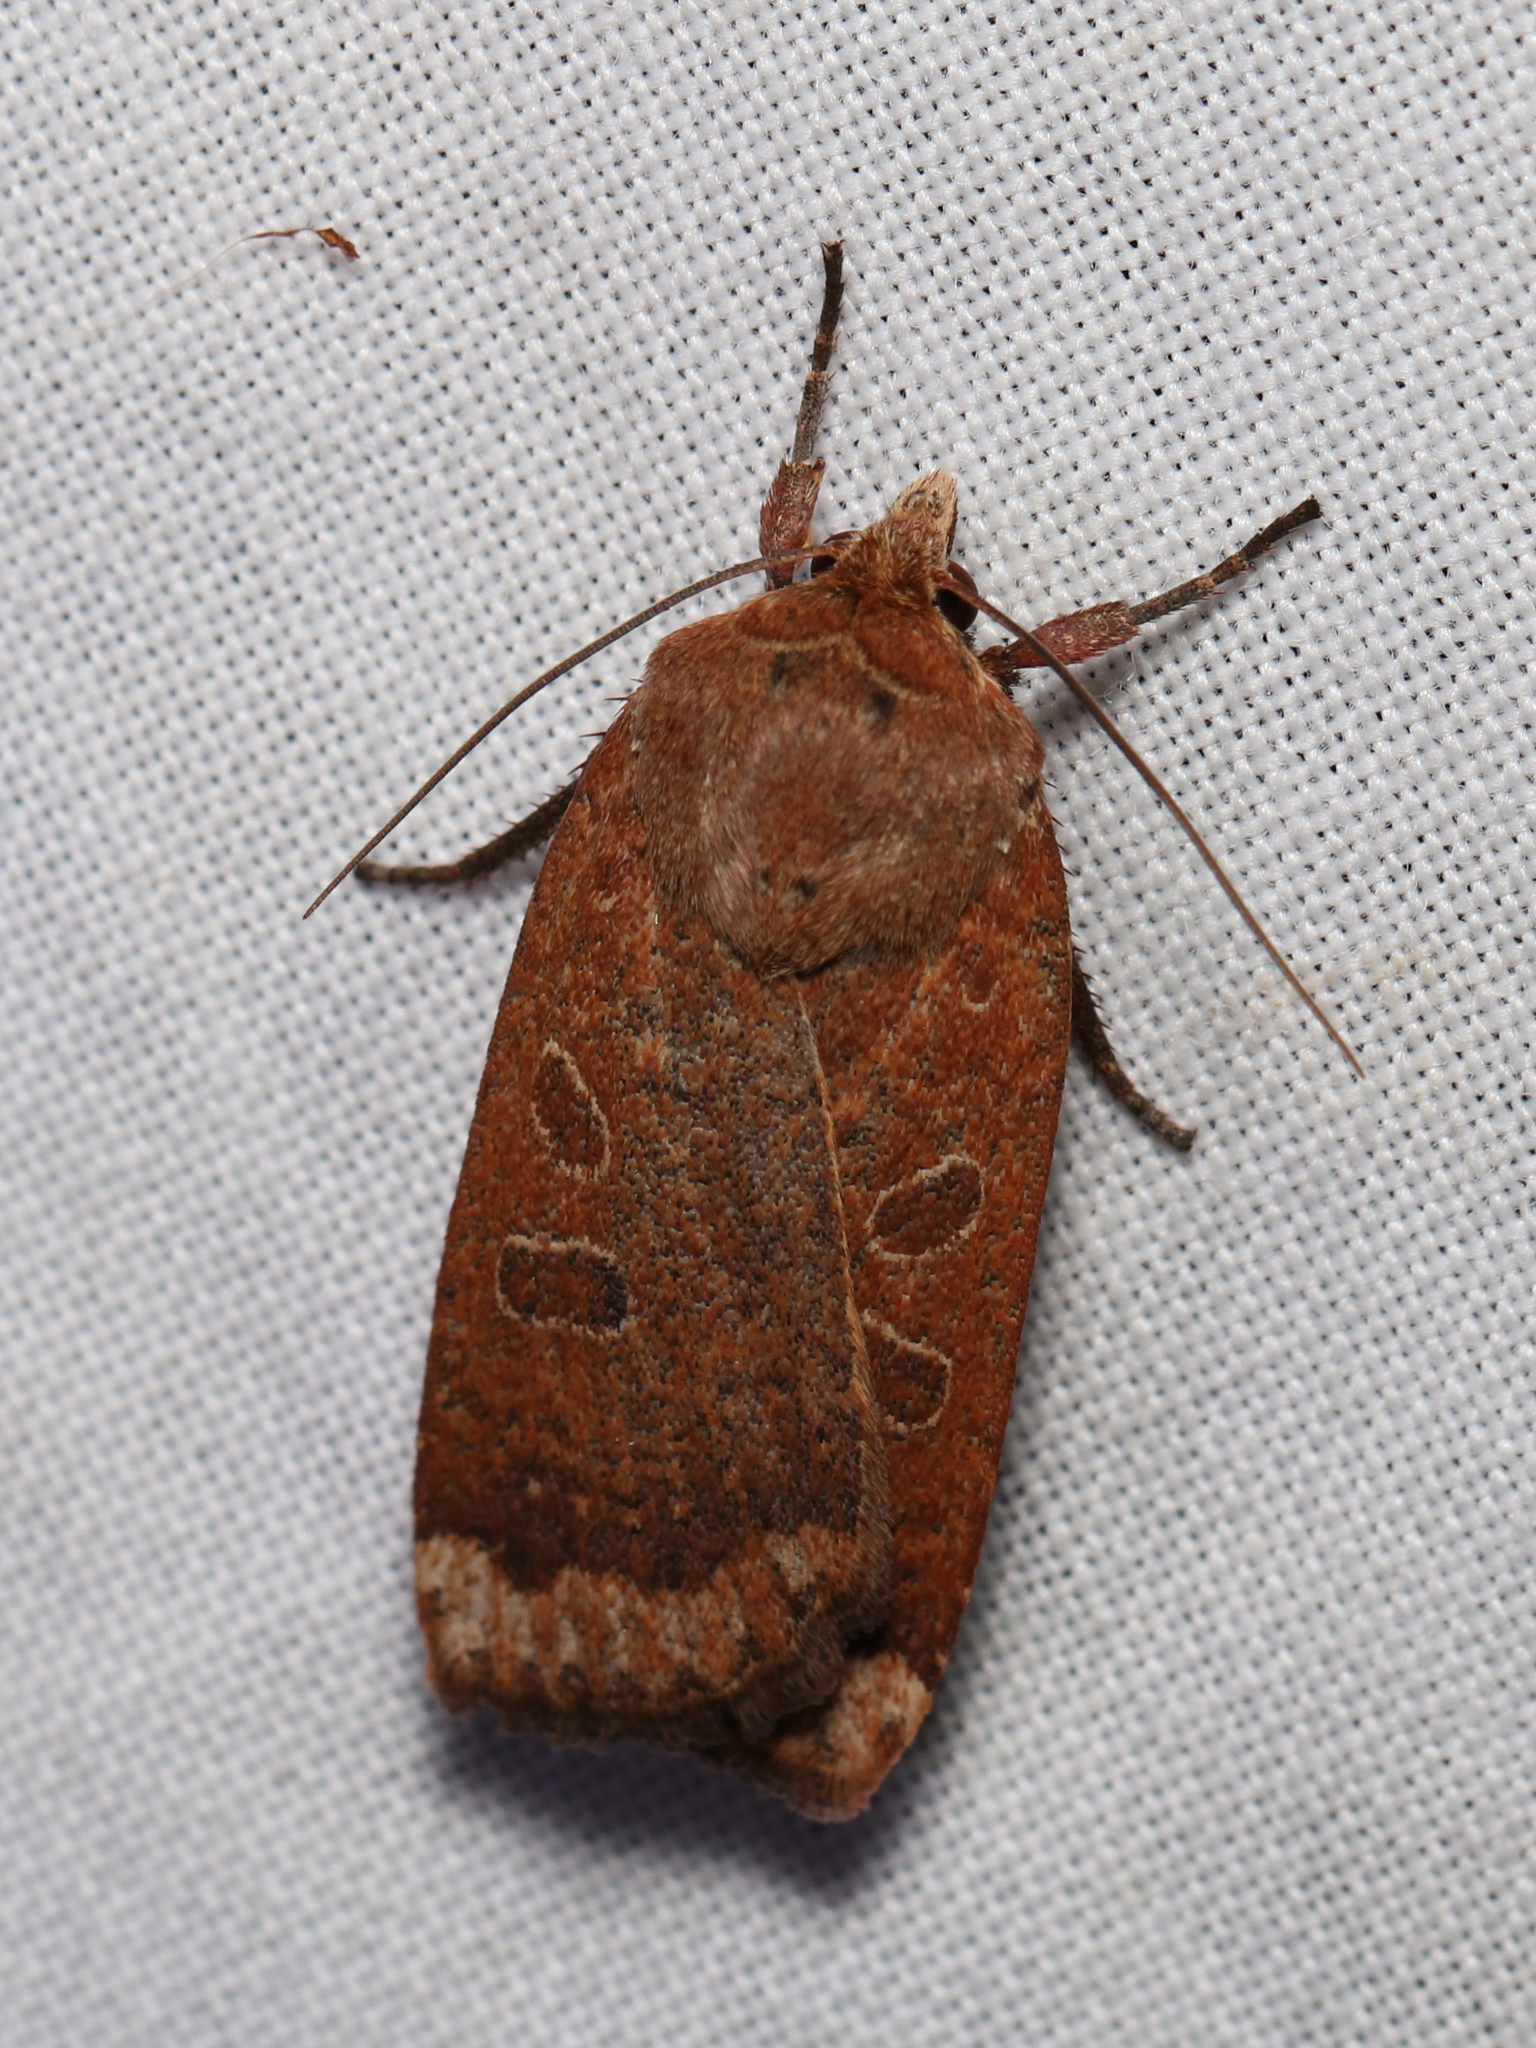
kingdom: Animalia
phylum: Arthropoda
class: Insecta
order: Lepidoptera
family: Noctuidae
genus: Abagrotis
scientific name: Abagrotis alternata
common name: Greater red dart
